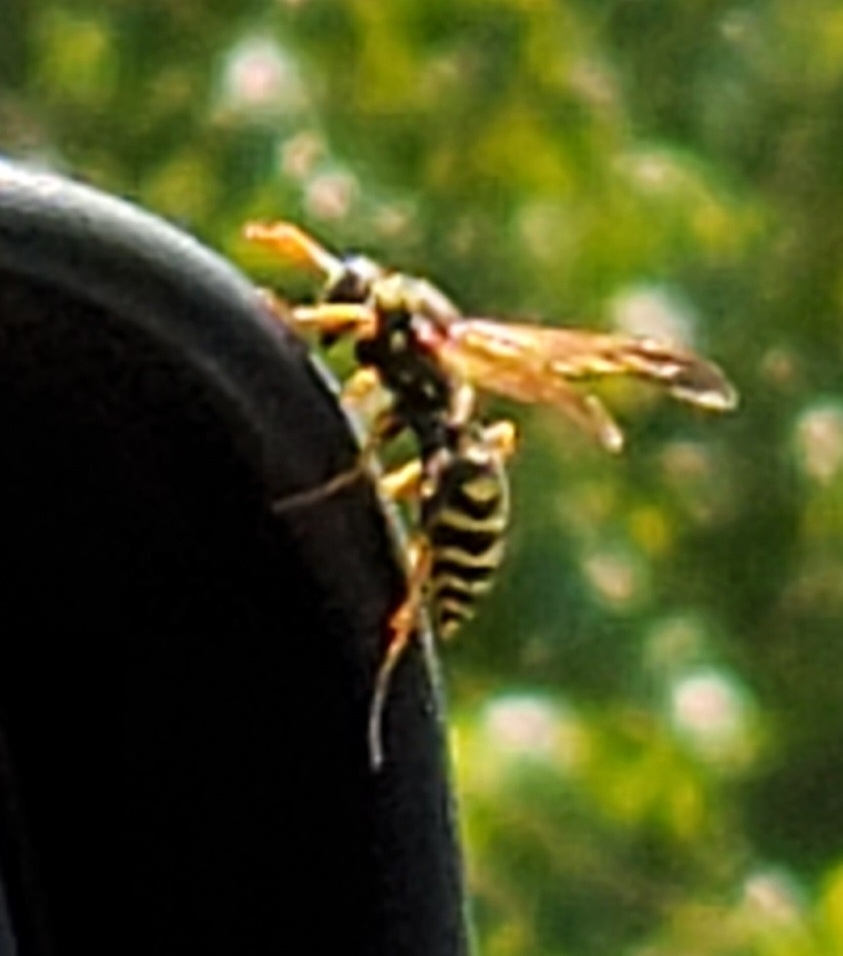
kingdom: Animalia
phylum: Arthropoda
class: Insecta
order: Hymenoptera
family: Eumenidae
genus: Polistes
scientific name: Polistes dominula
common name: Paper wasp
